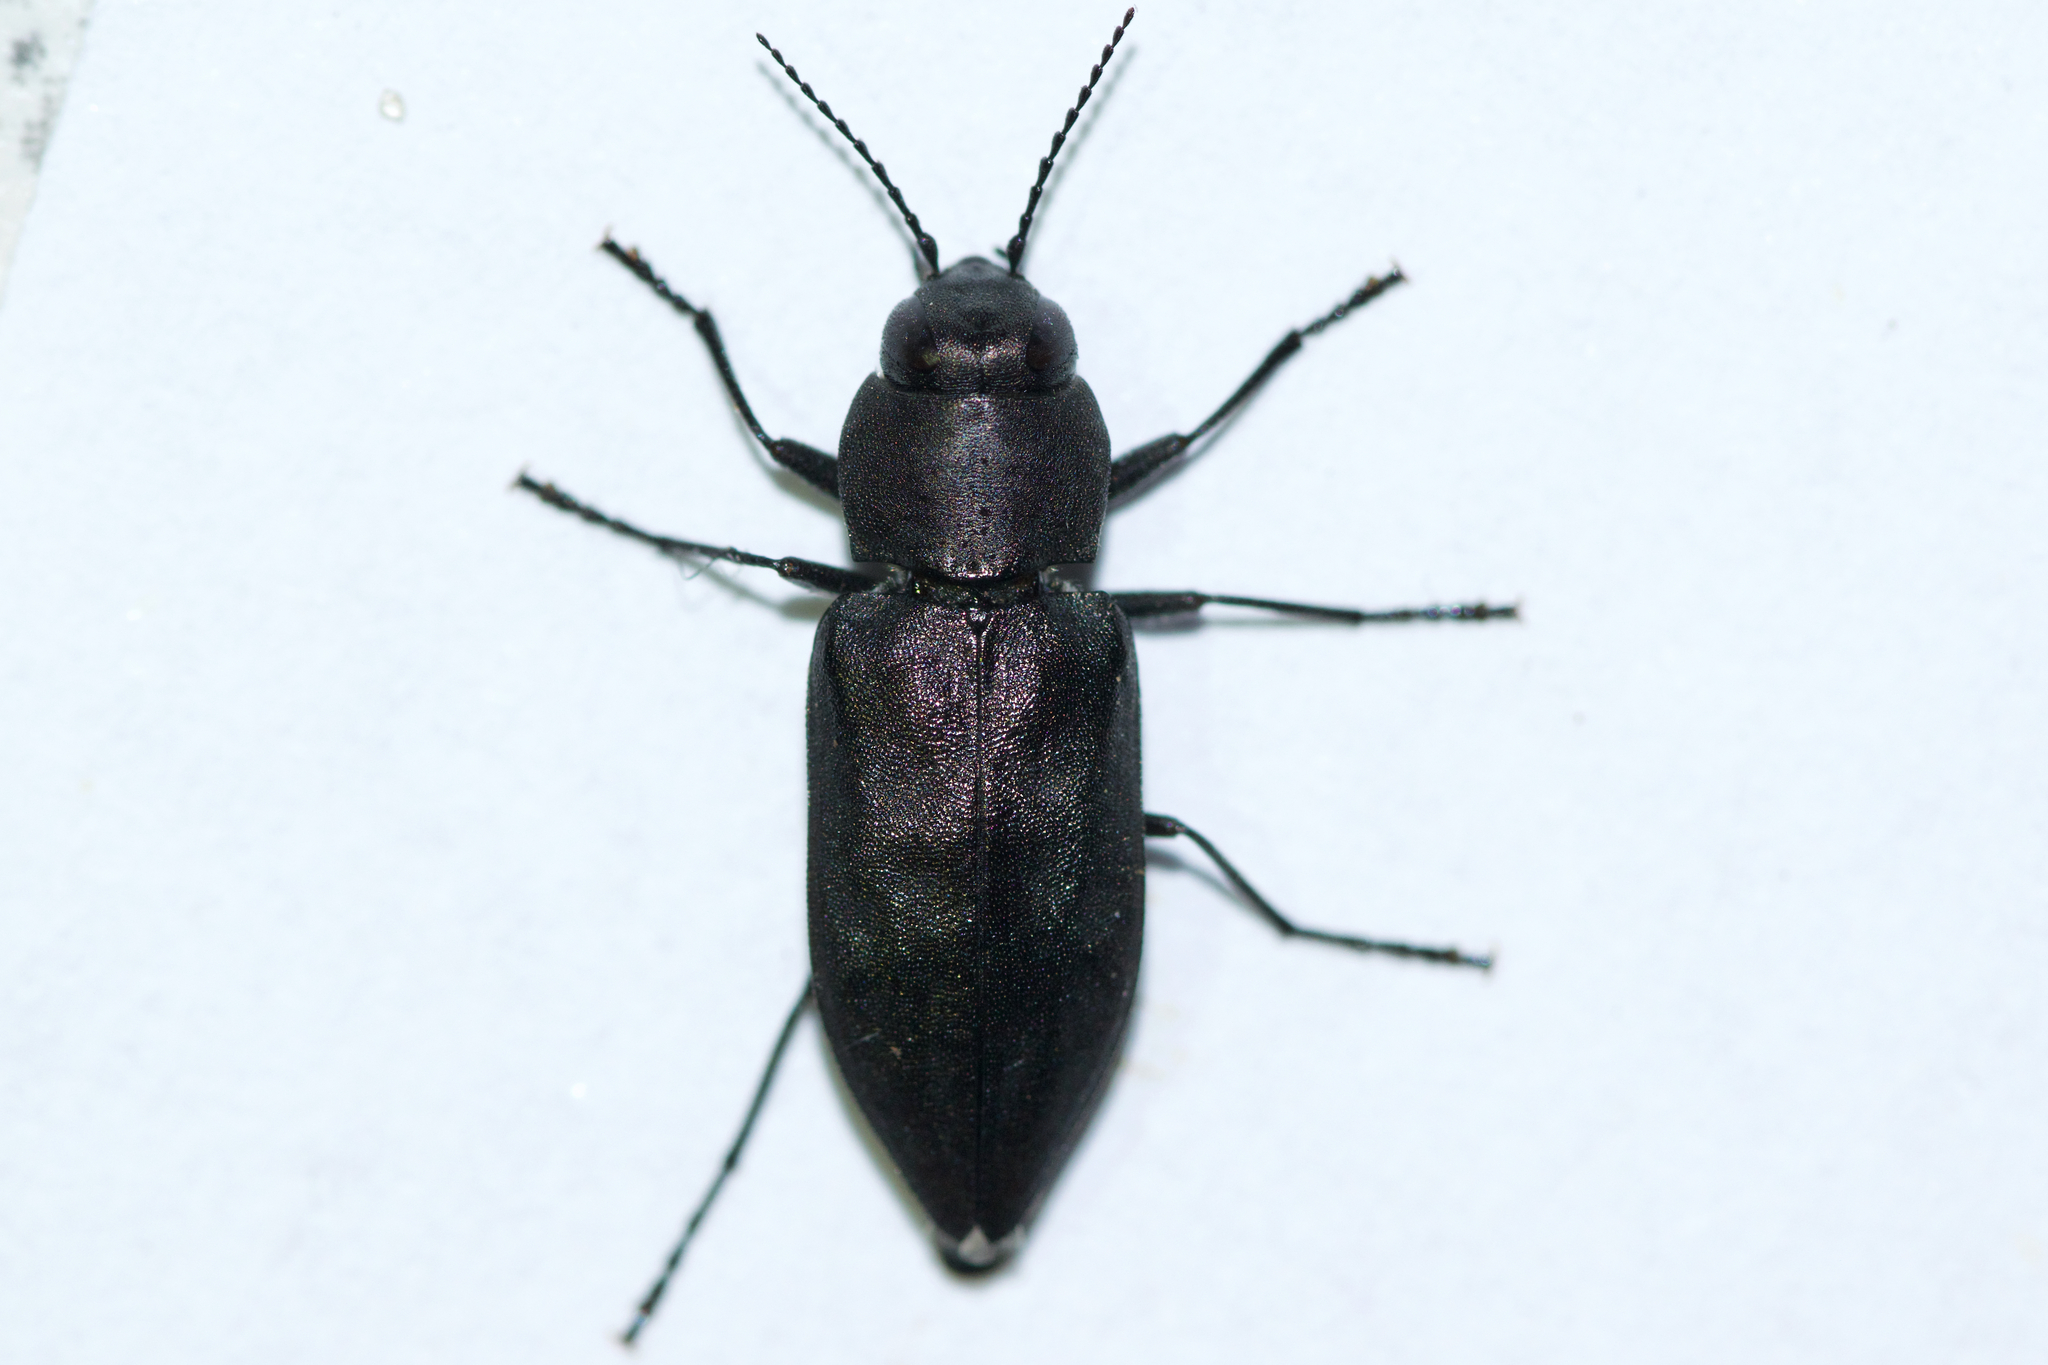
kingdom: Animalia
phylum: Arthropoda
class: Insecta
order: Coleoptera
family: Buprestidae
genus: Melanophila
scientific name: Melanophila acuminata
